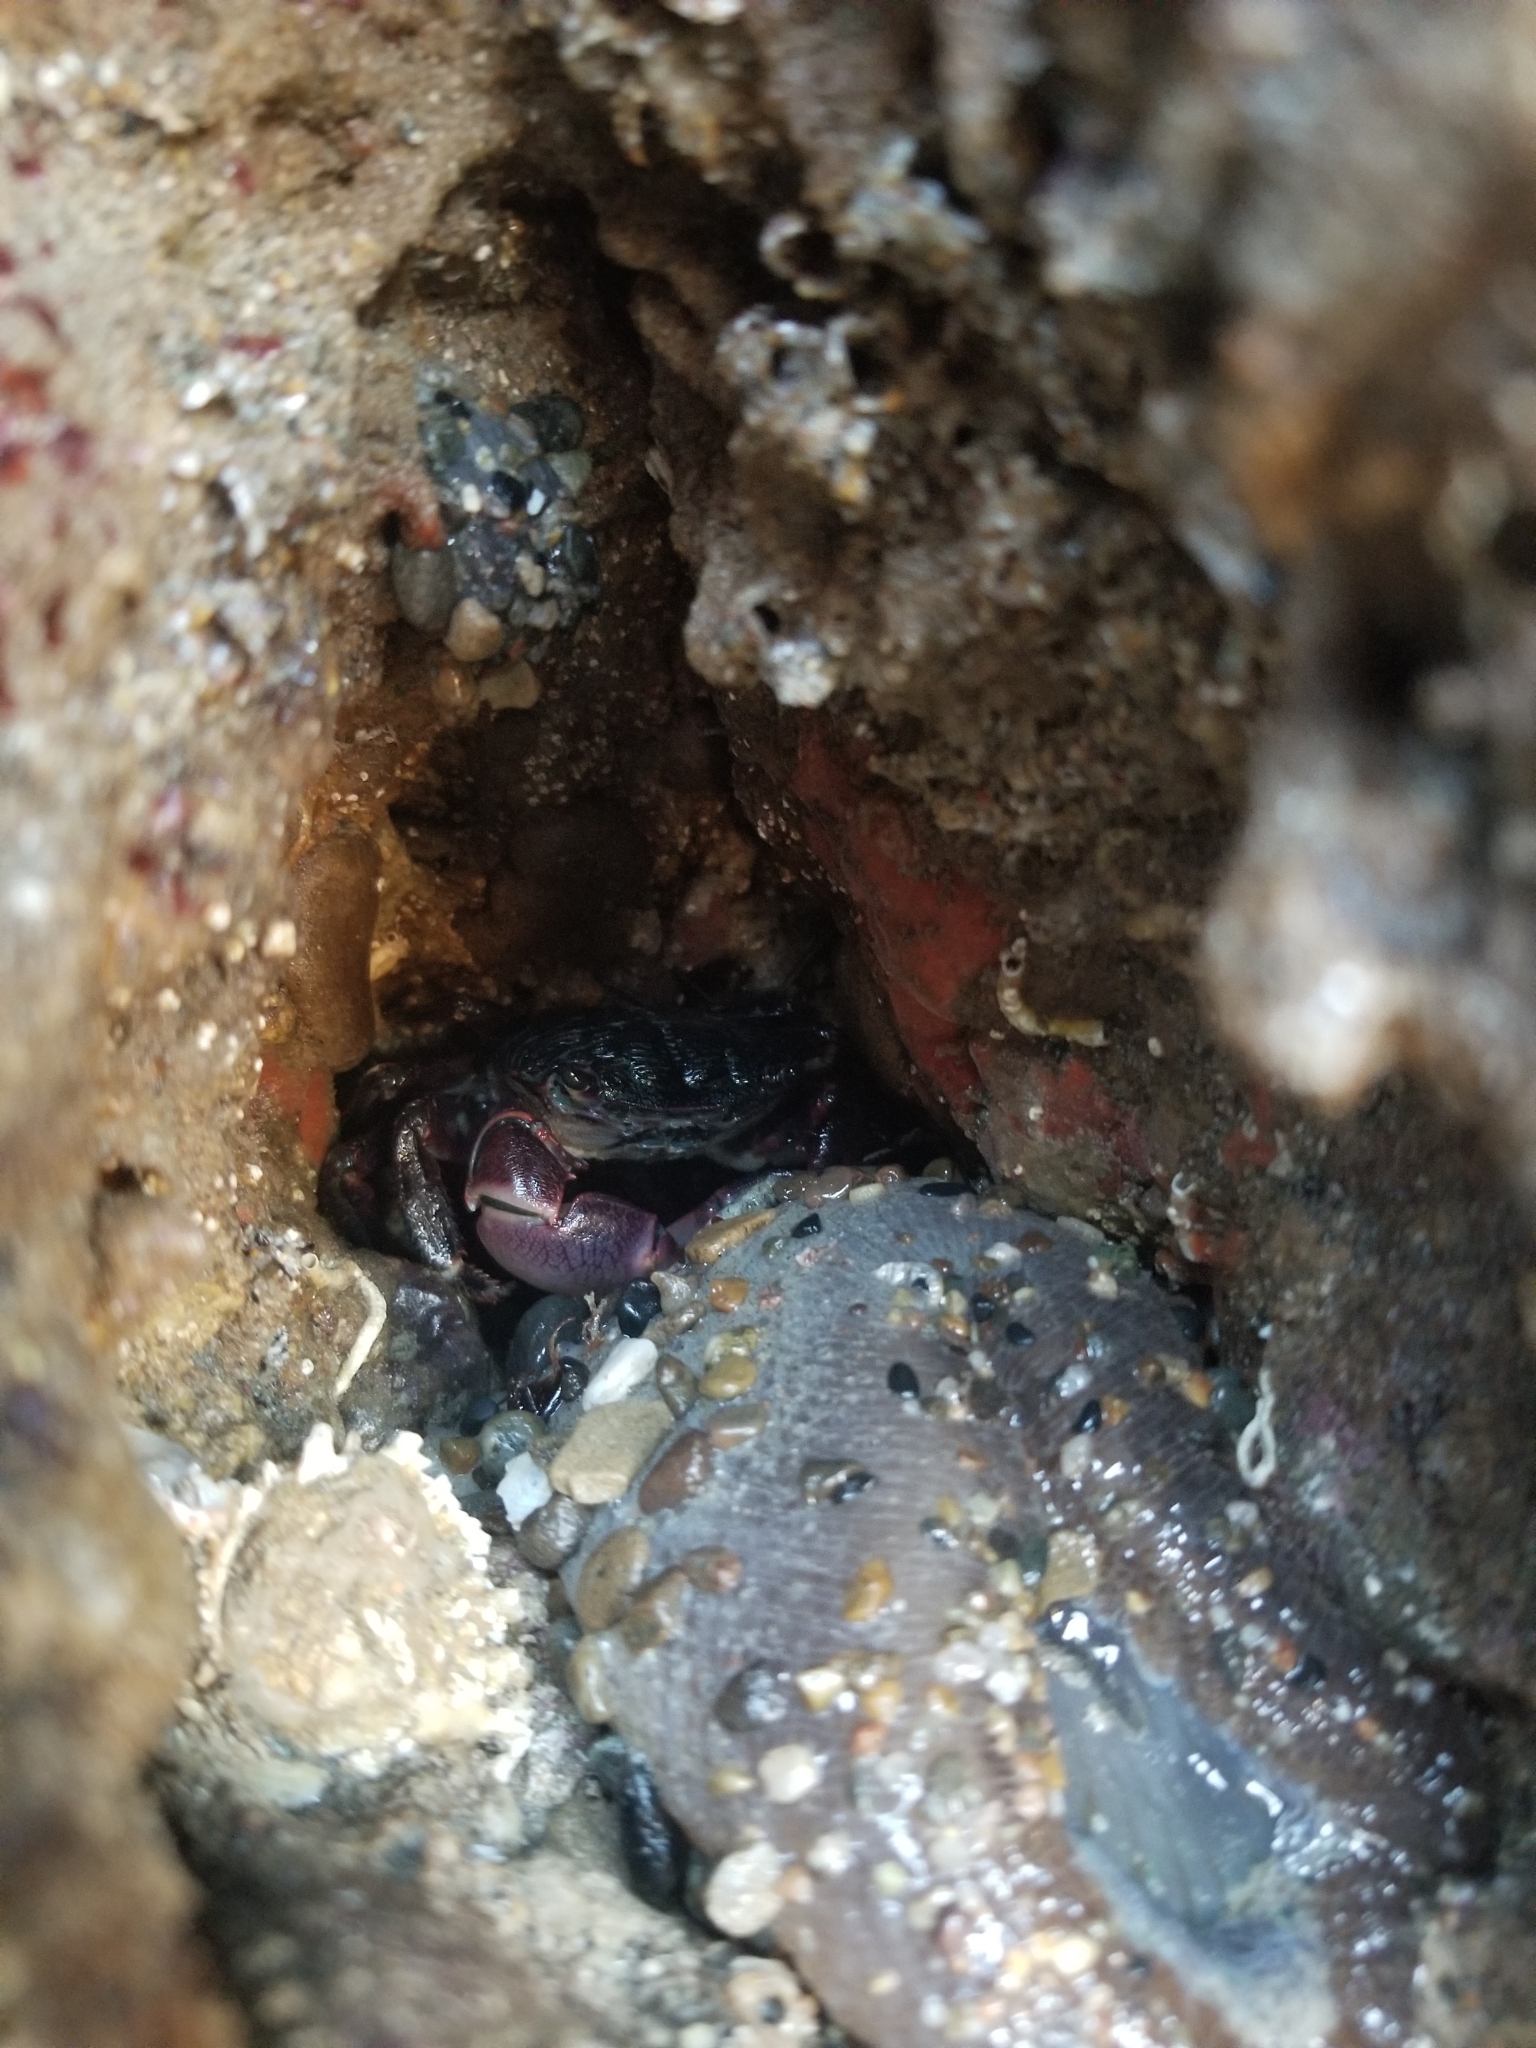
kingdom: Animalia
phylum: Arthropoda
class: Malacostraca
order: Decapoda
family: Grapsidae
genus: Pachygrapsus
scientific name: Pachygrapsus crassipes
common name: Striped shore crab
